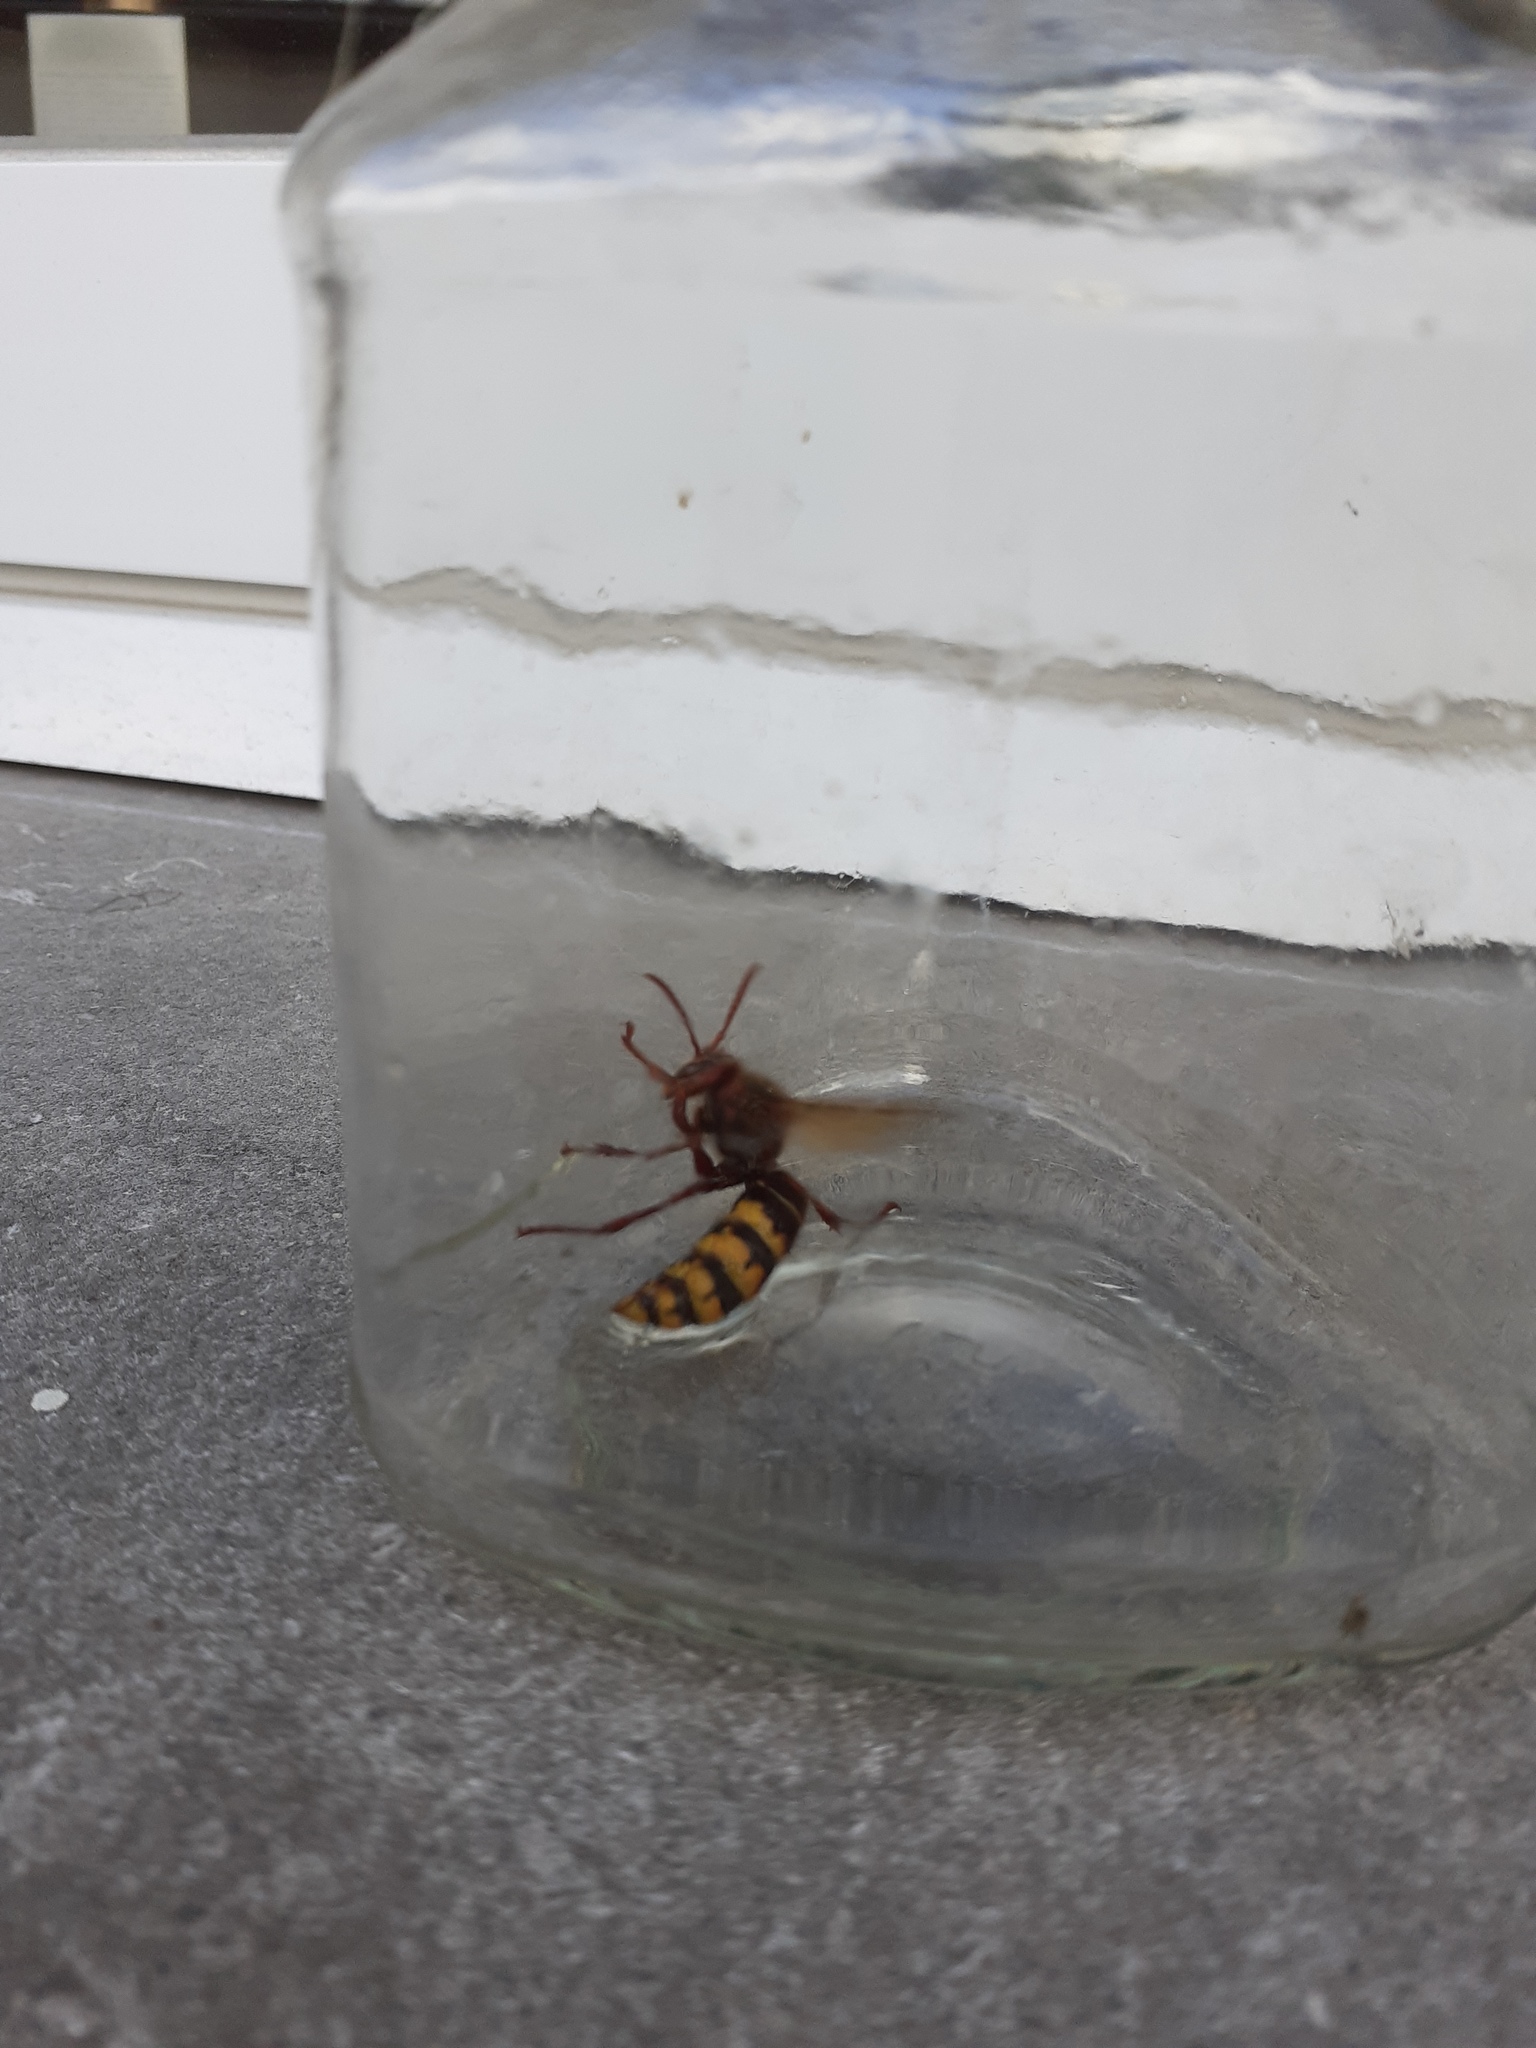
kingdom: Animalia
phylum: Arthropoda
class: Insecta
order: Hymenoptera
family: Vespidae
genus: Vespa
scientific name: Vespa crabro
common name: Hornet
